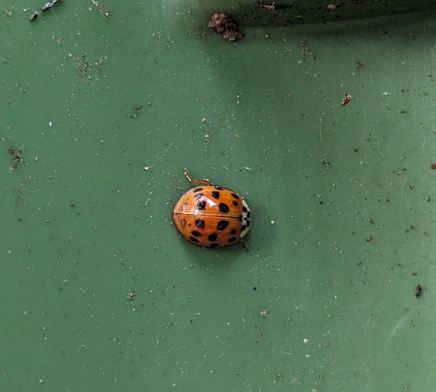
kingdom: Animalia
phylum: Arthropoda
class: Insecta
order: Coleoptera
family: Coccinellidae
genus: Harmonia
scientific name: Harmonia axyridis
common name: Harlequin ladybird
